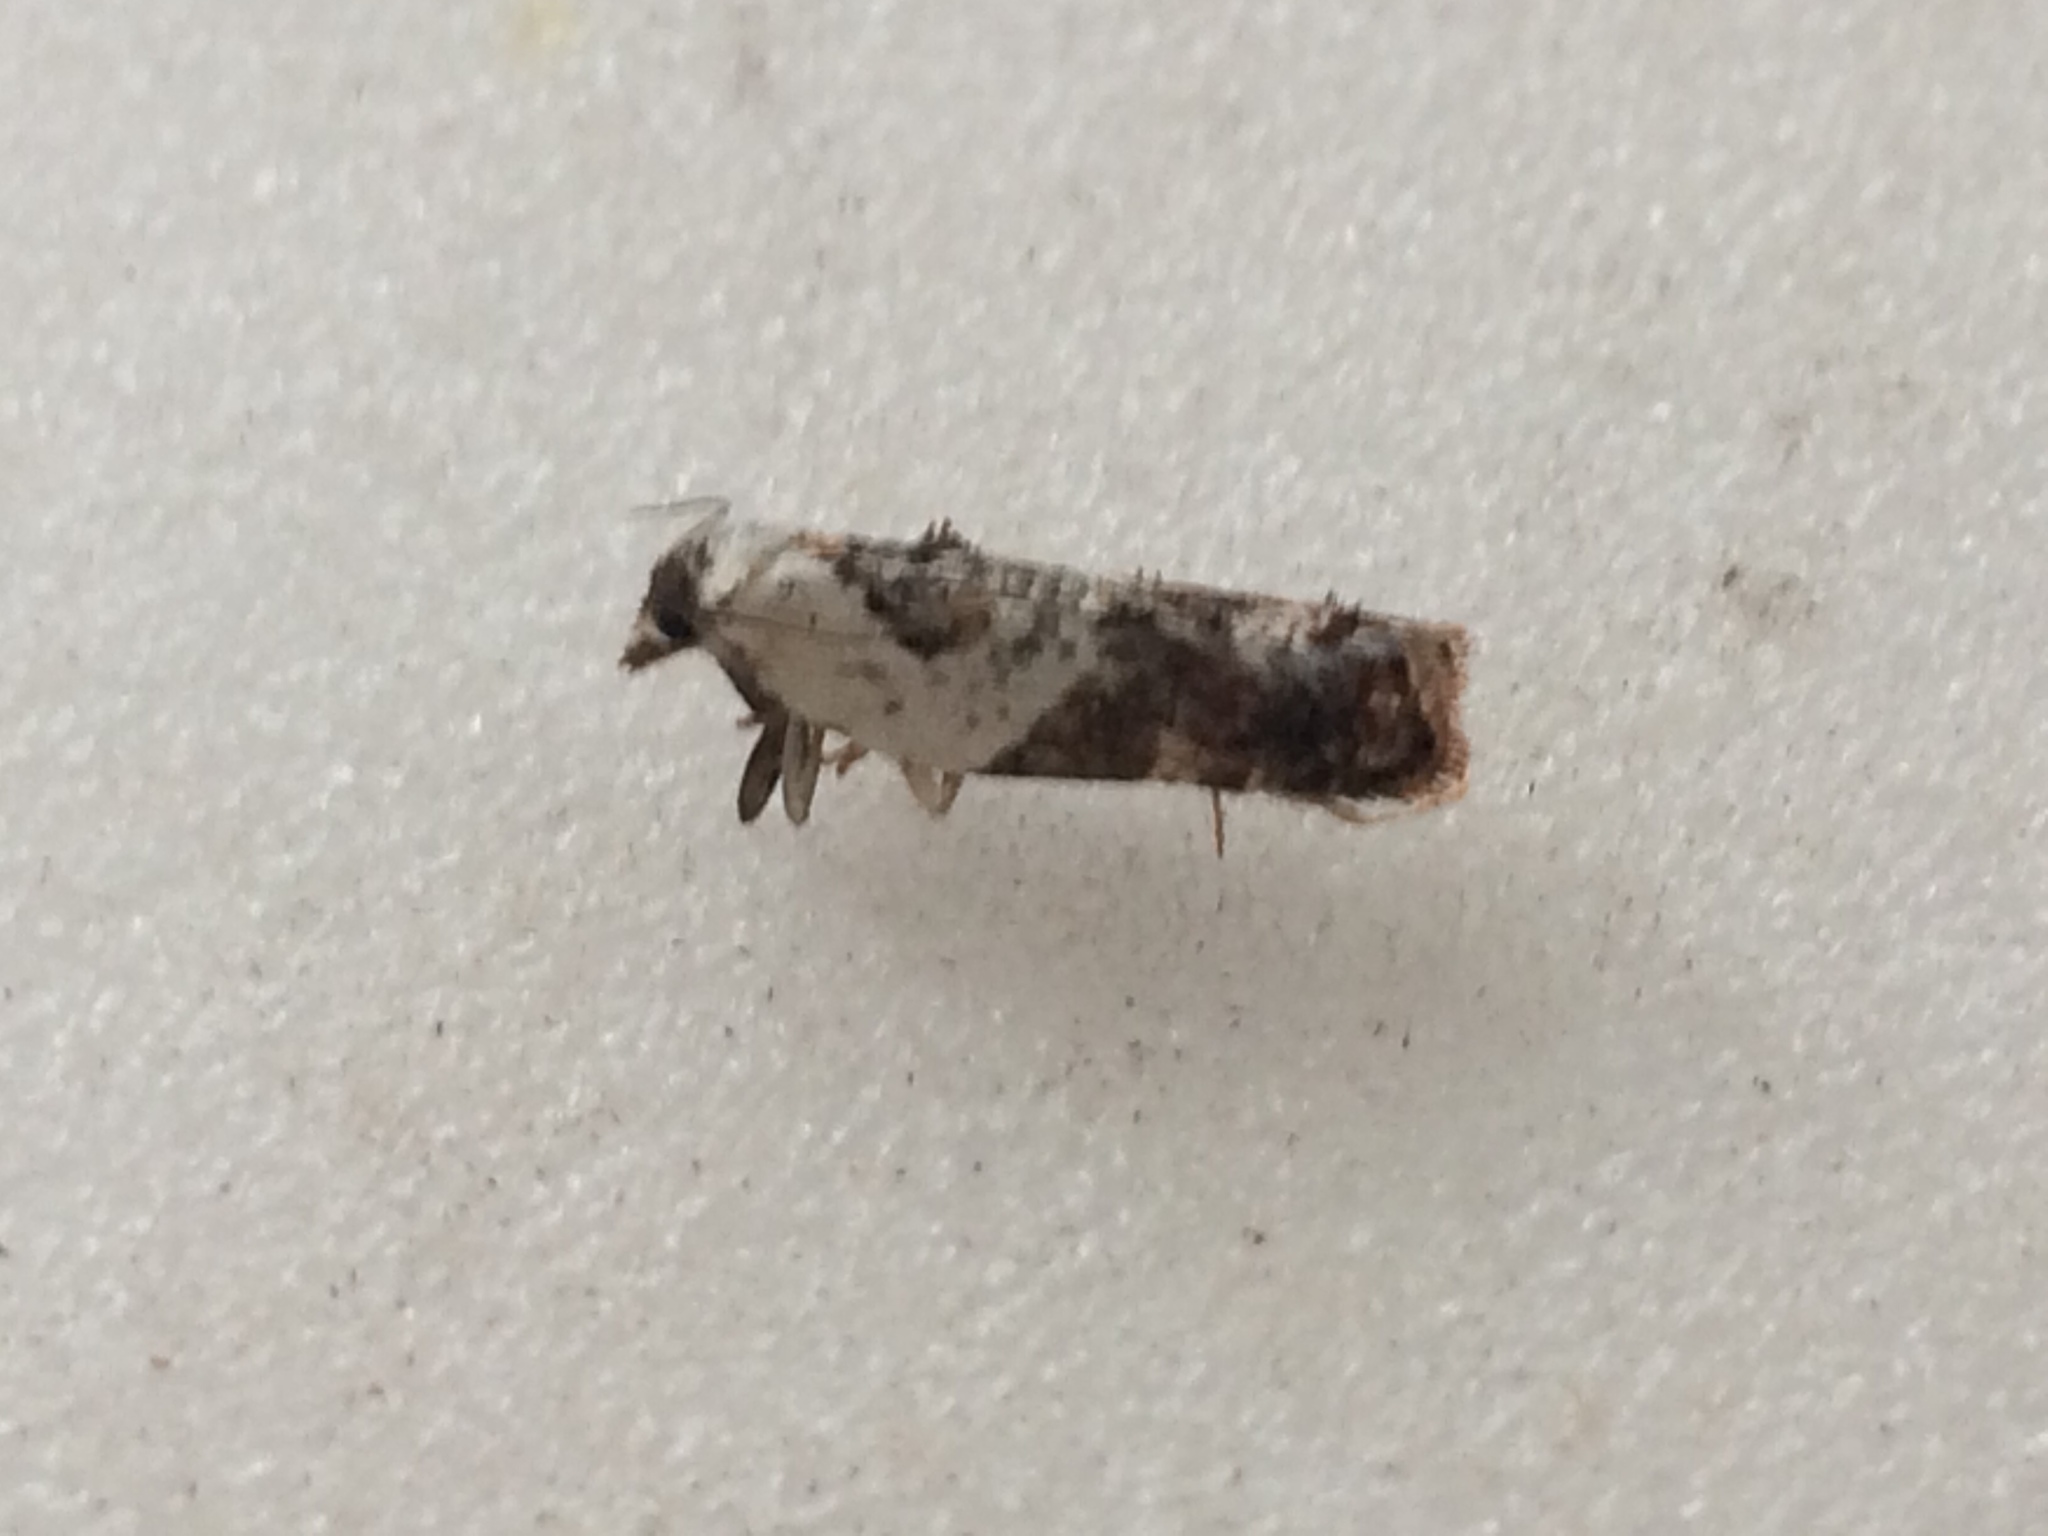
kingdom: Animalia
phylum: Arthropoda
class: Insecta
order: Lepidoptera
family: Tortricidae
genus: Acleris
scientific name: Acleris variegana
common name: Garden rose tortrix
